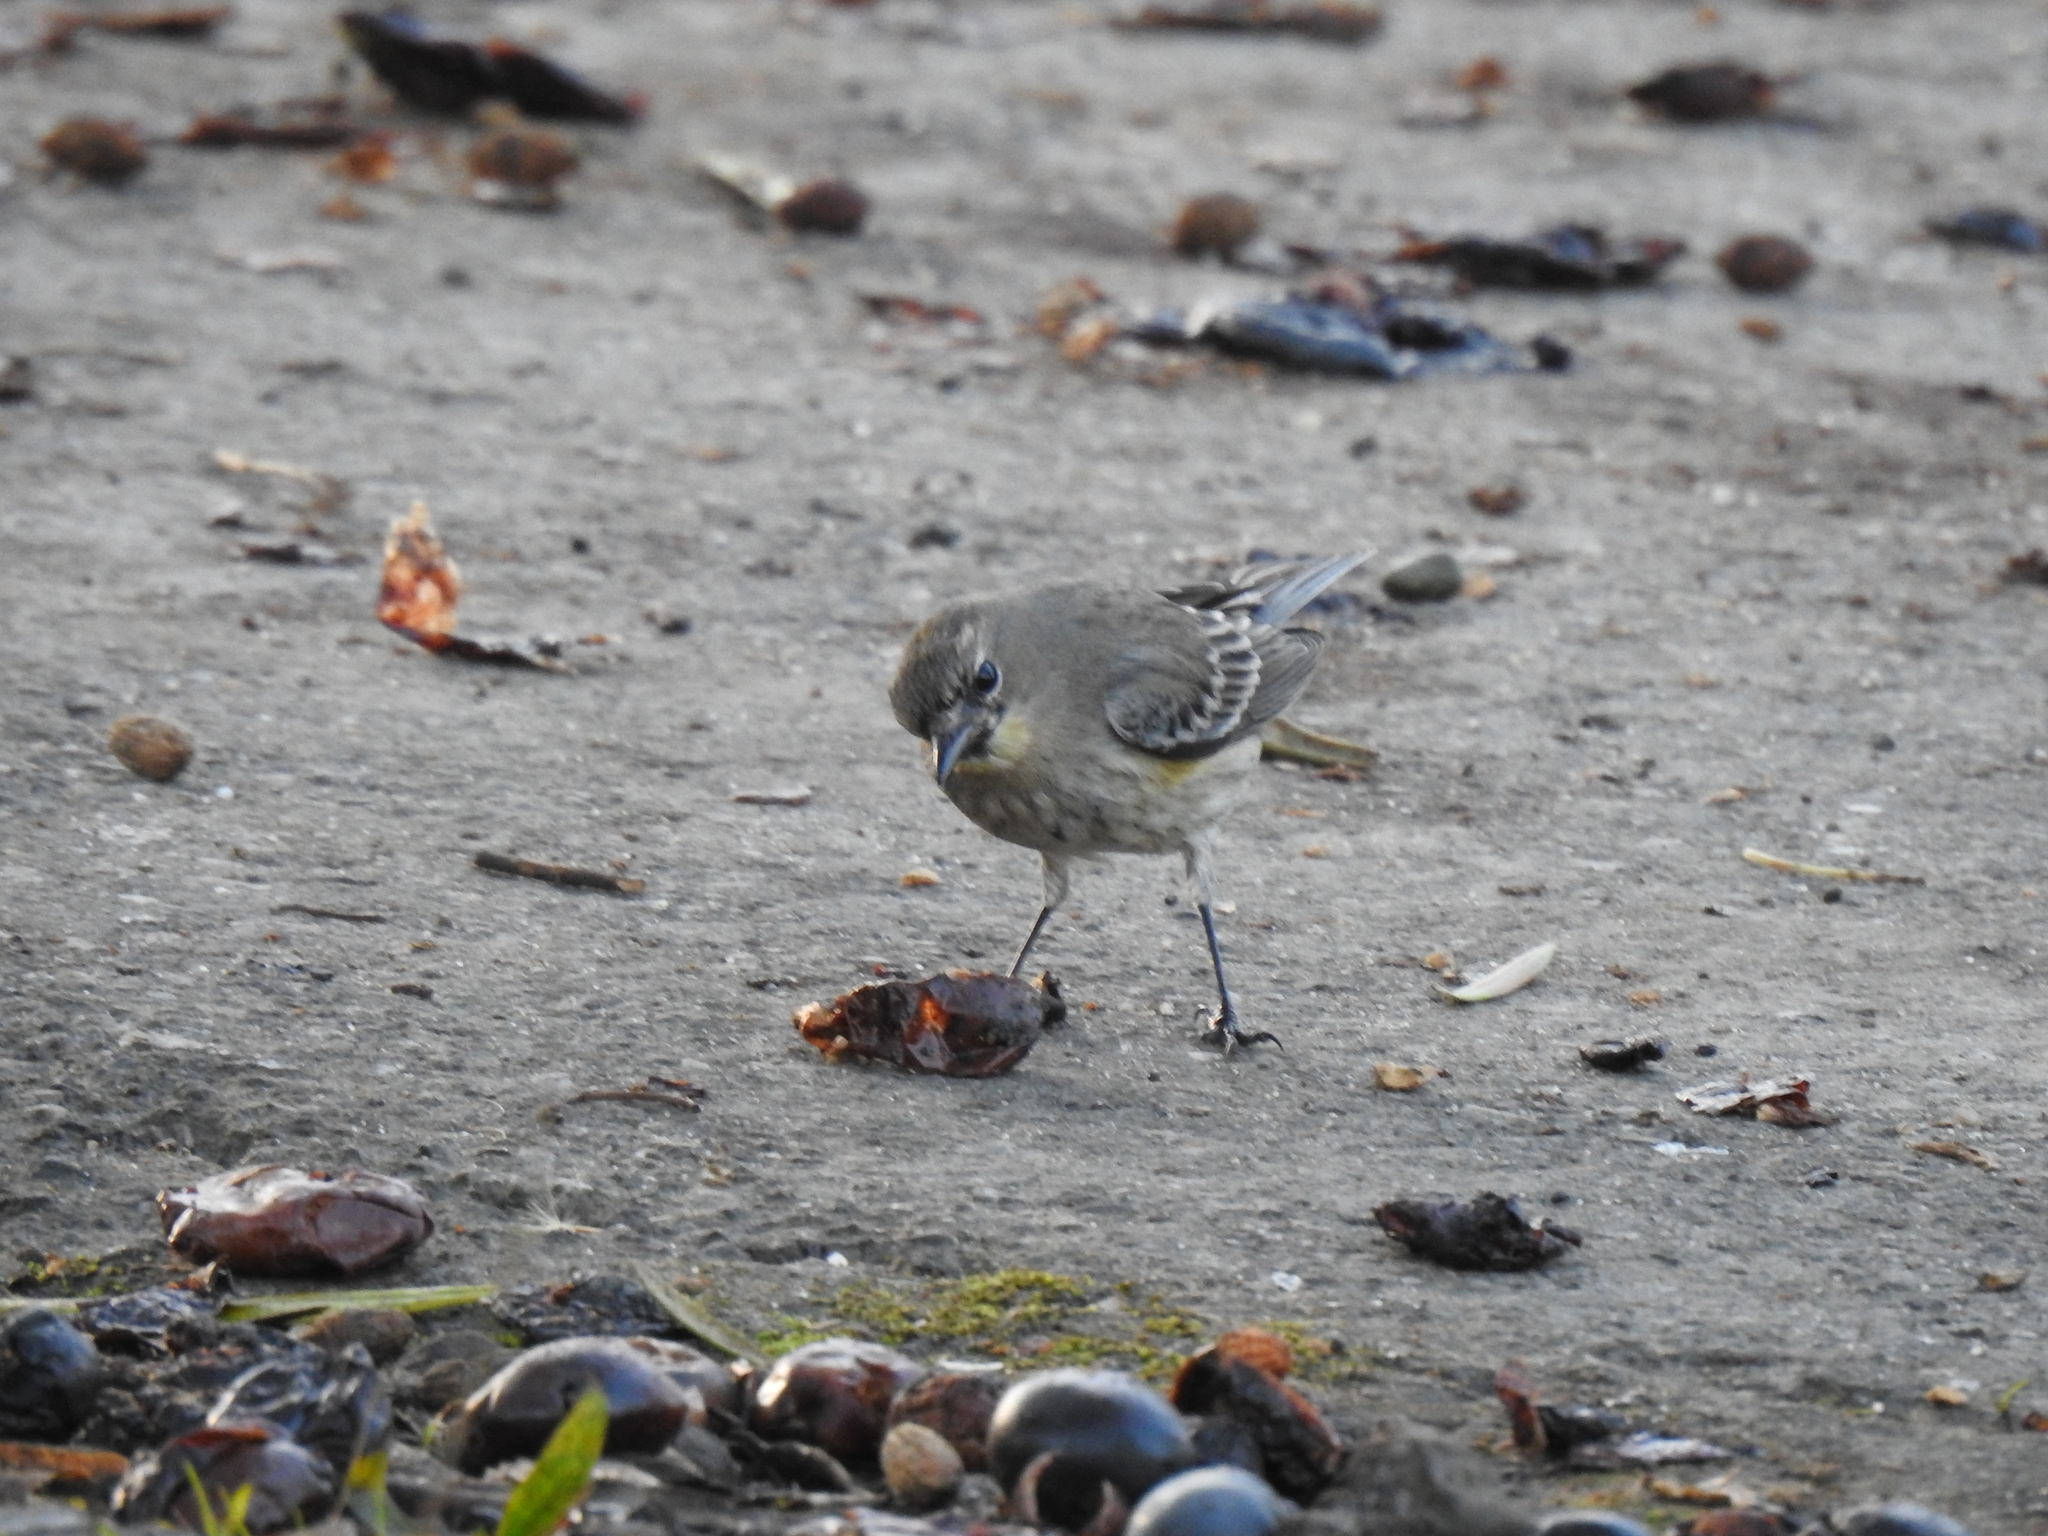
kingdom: Animalia
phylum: Chordata
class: Aves
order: Passeriformes
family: Parulidae
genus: Setophaga
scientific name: Setophaga coronata
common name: Myrtle warbler
